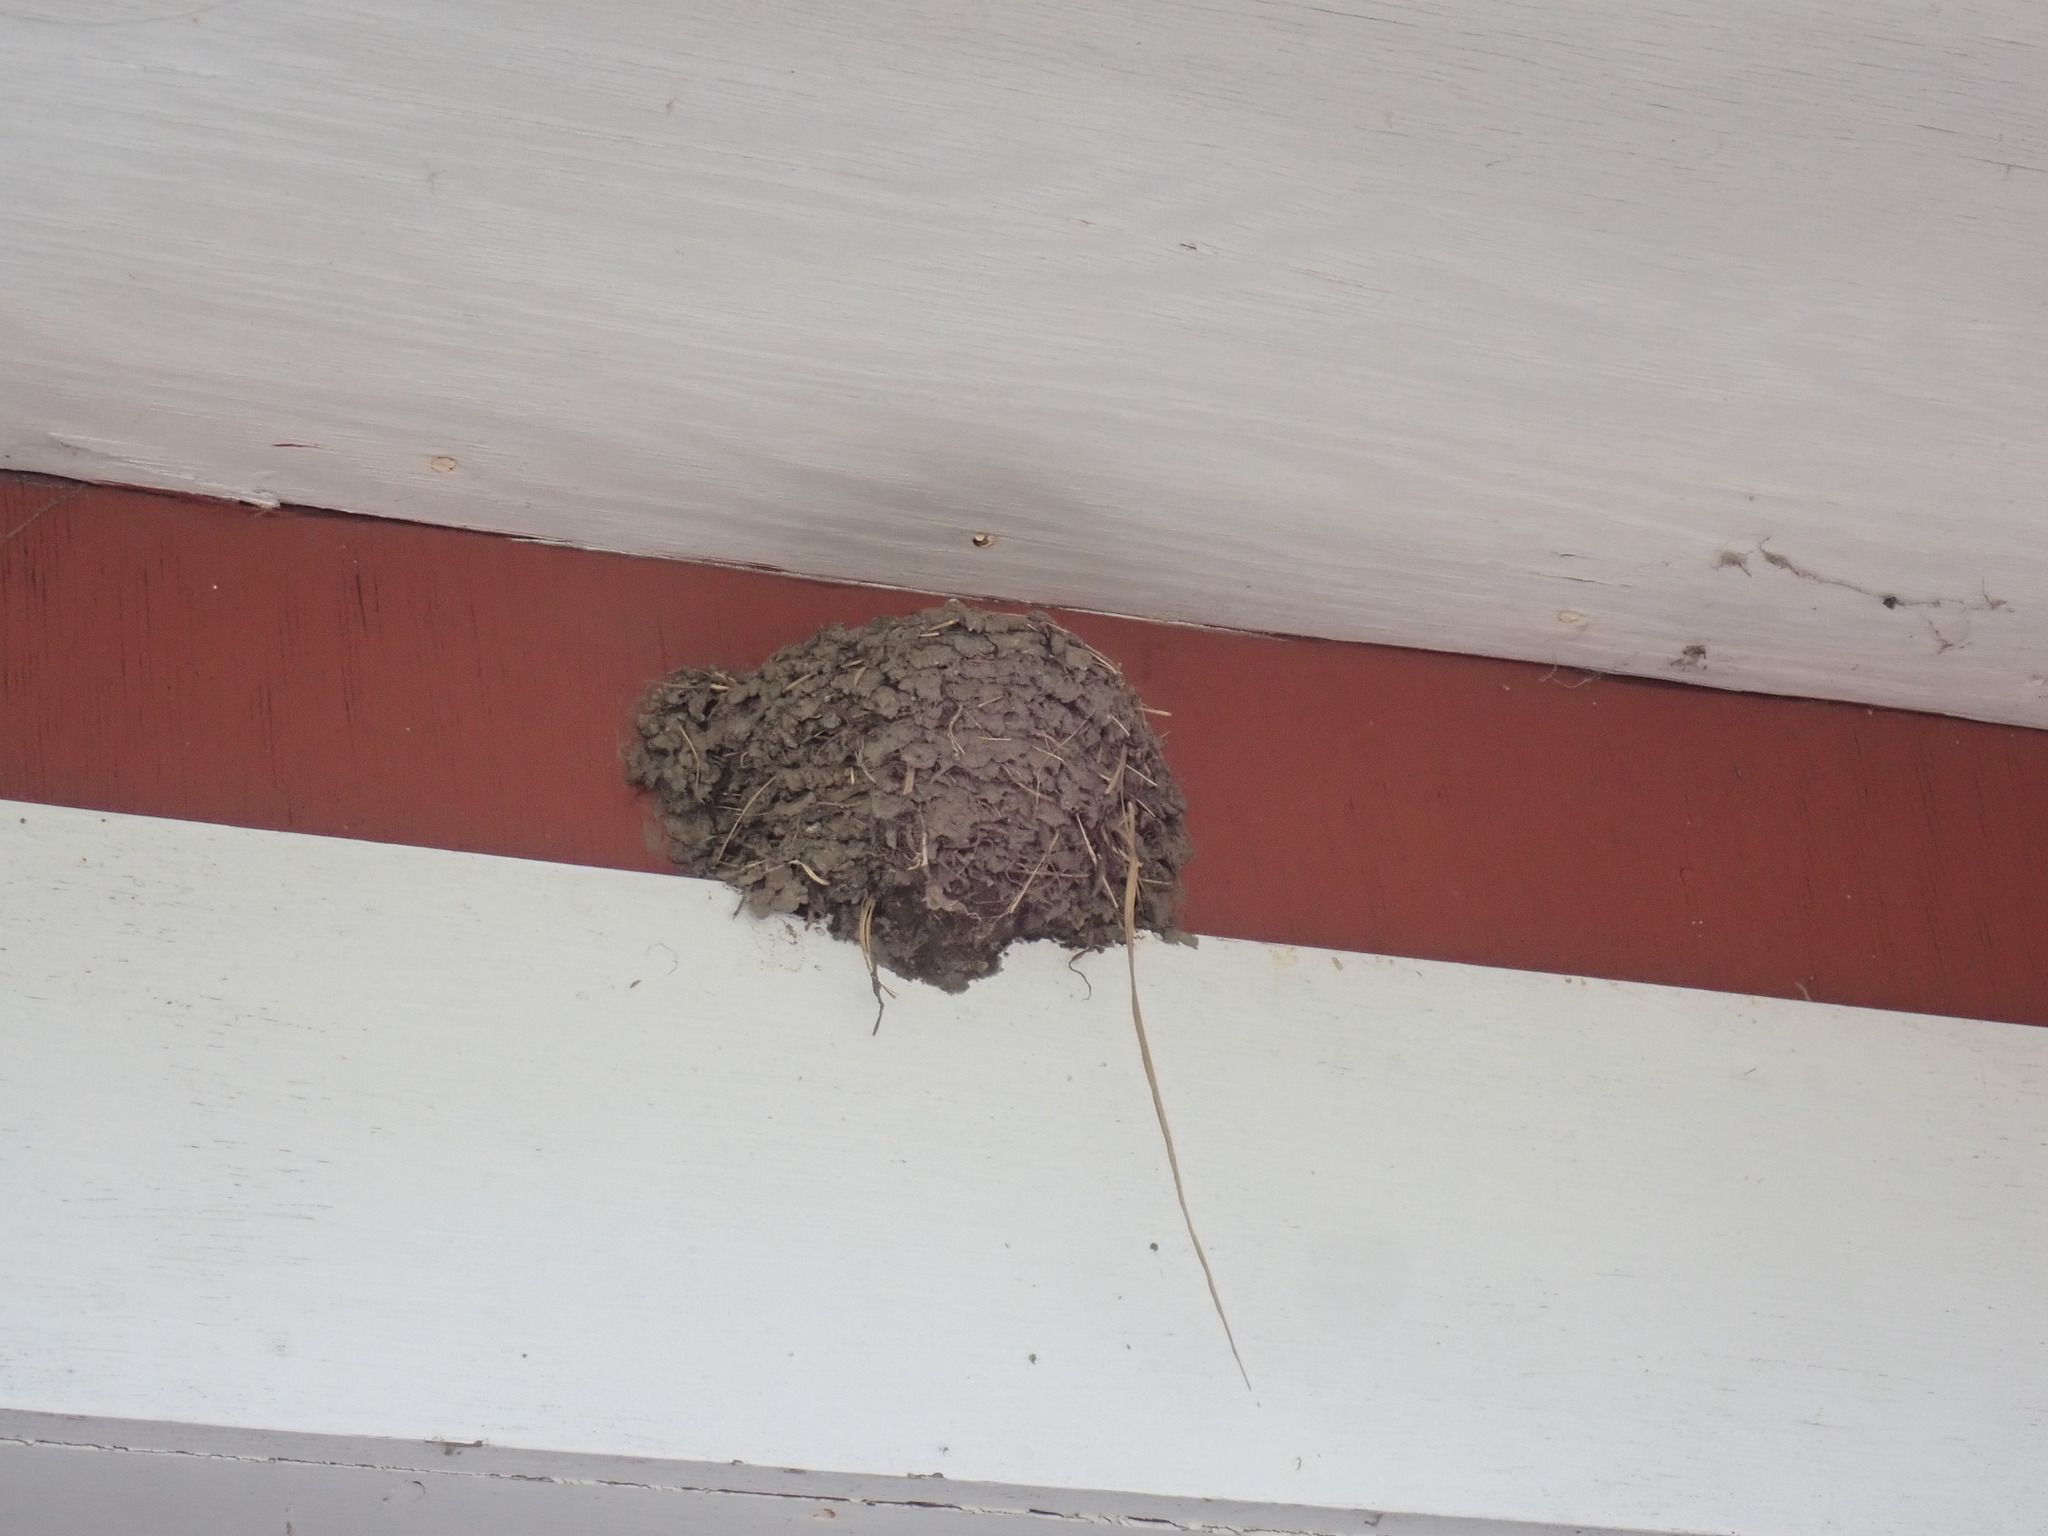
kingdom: Animalia
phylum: Chordata
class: Aves
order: Passeriformes
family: Hirundinidae
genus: Hirundo
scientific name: Hirundo rustica
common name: Barn swallow
